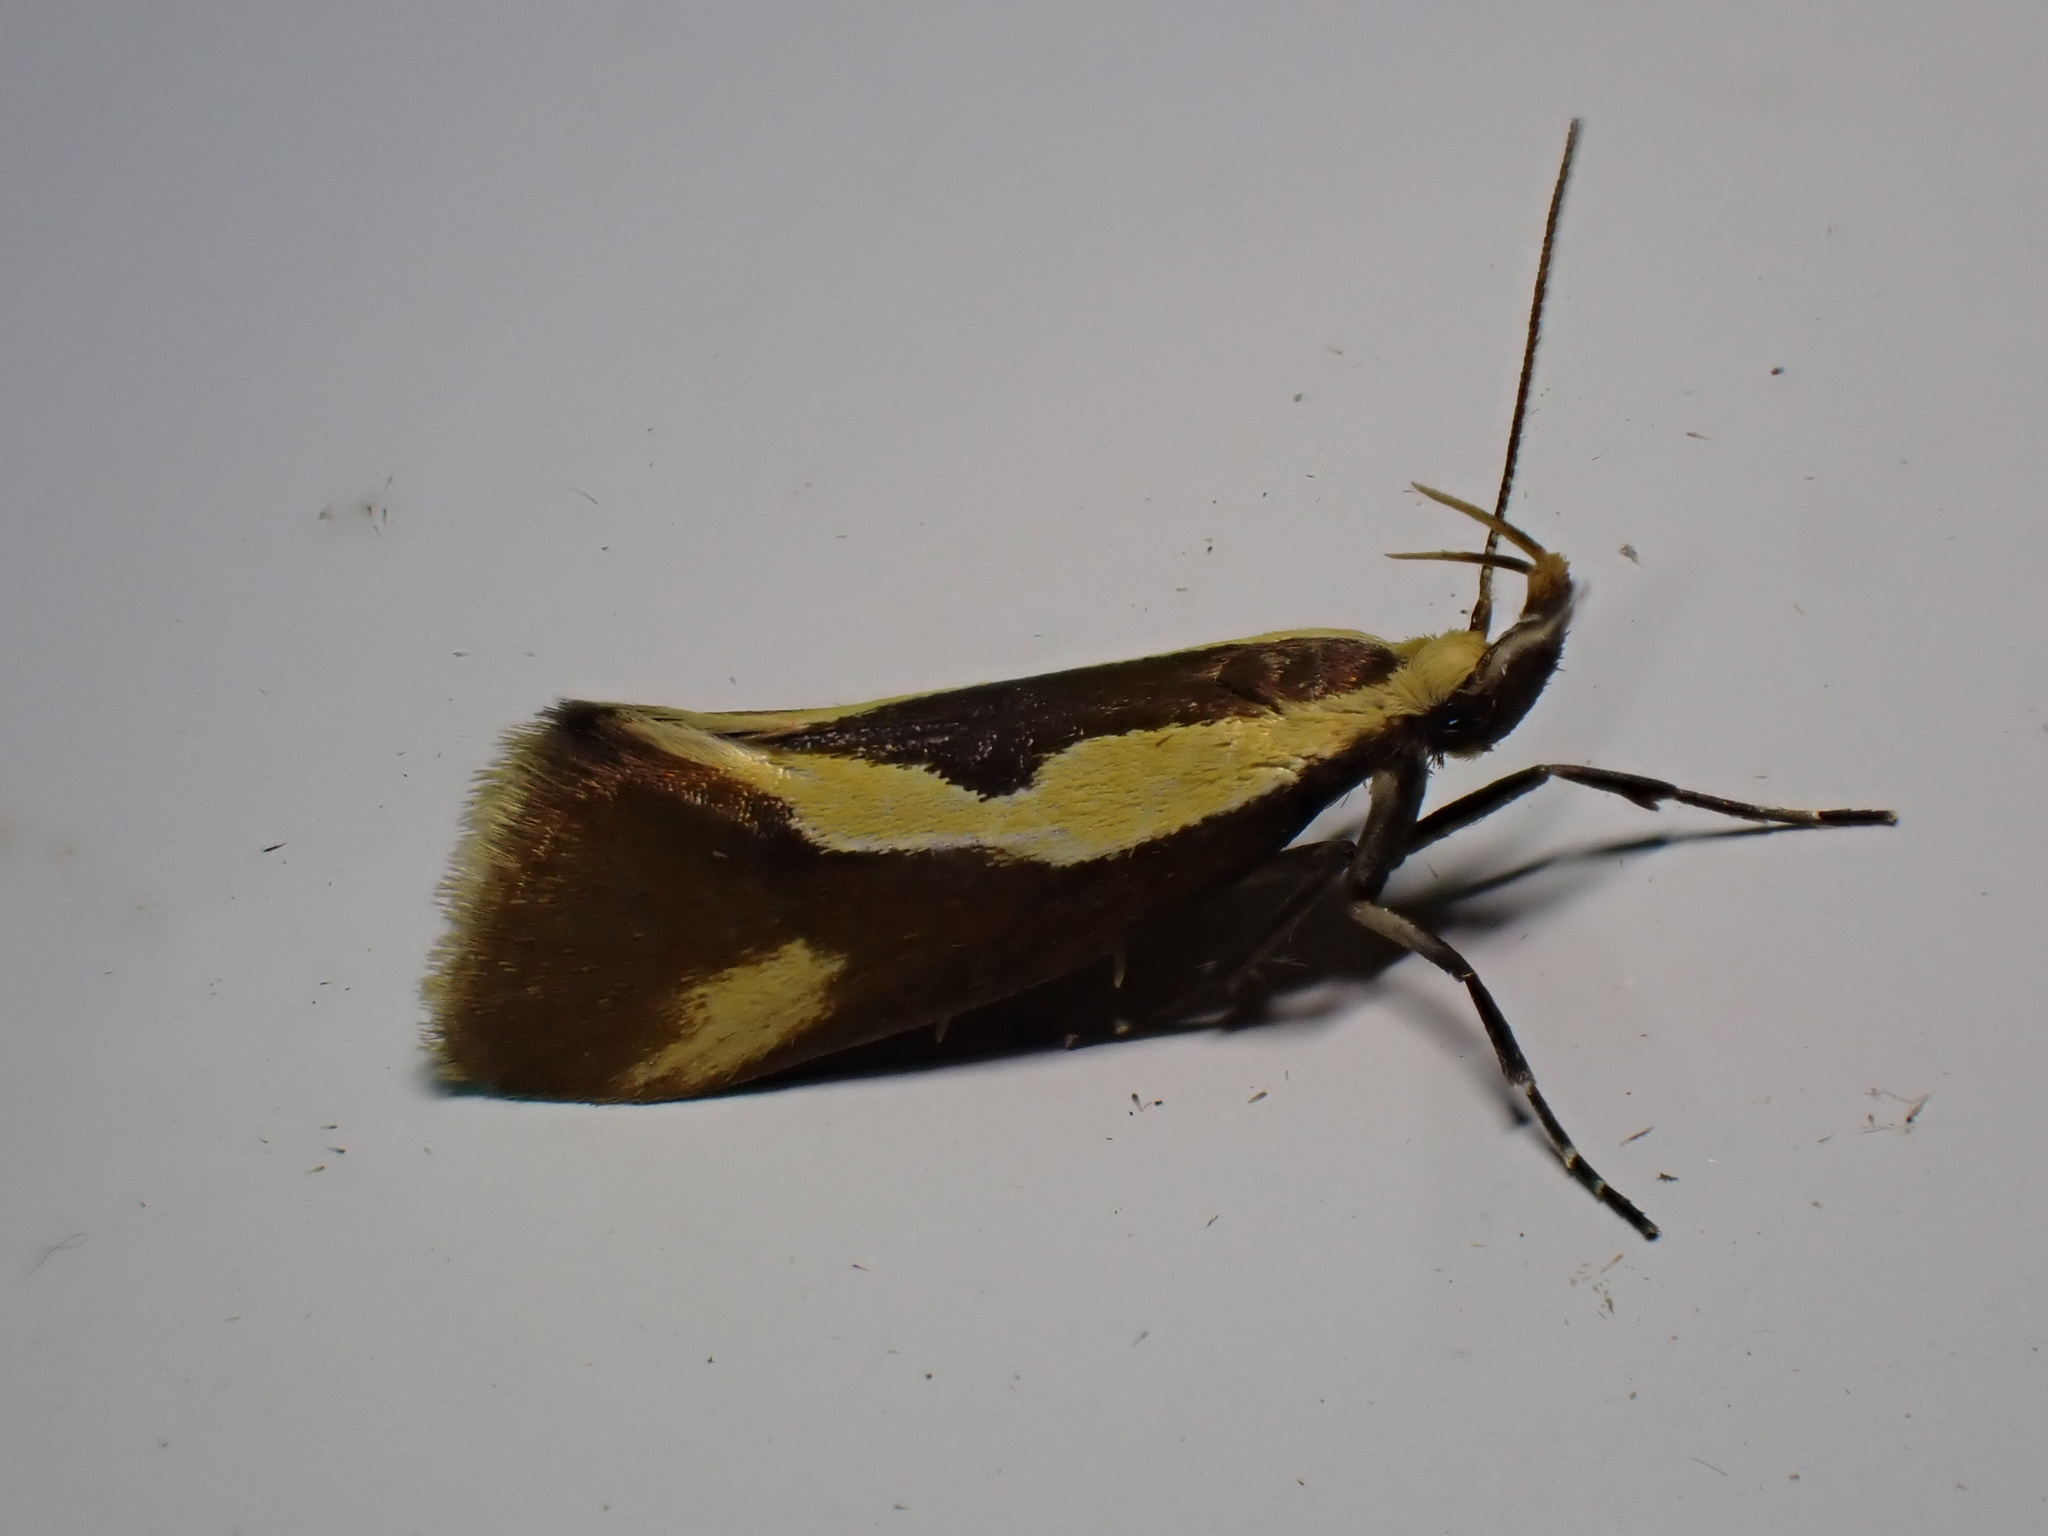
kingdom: Animalia
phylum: Arthropoda
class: Insecta
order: Lepidoptera
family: Oecophoridae
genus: Harpella
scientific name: Harpella forficella
